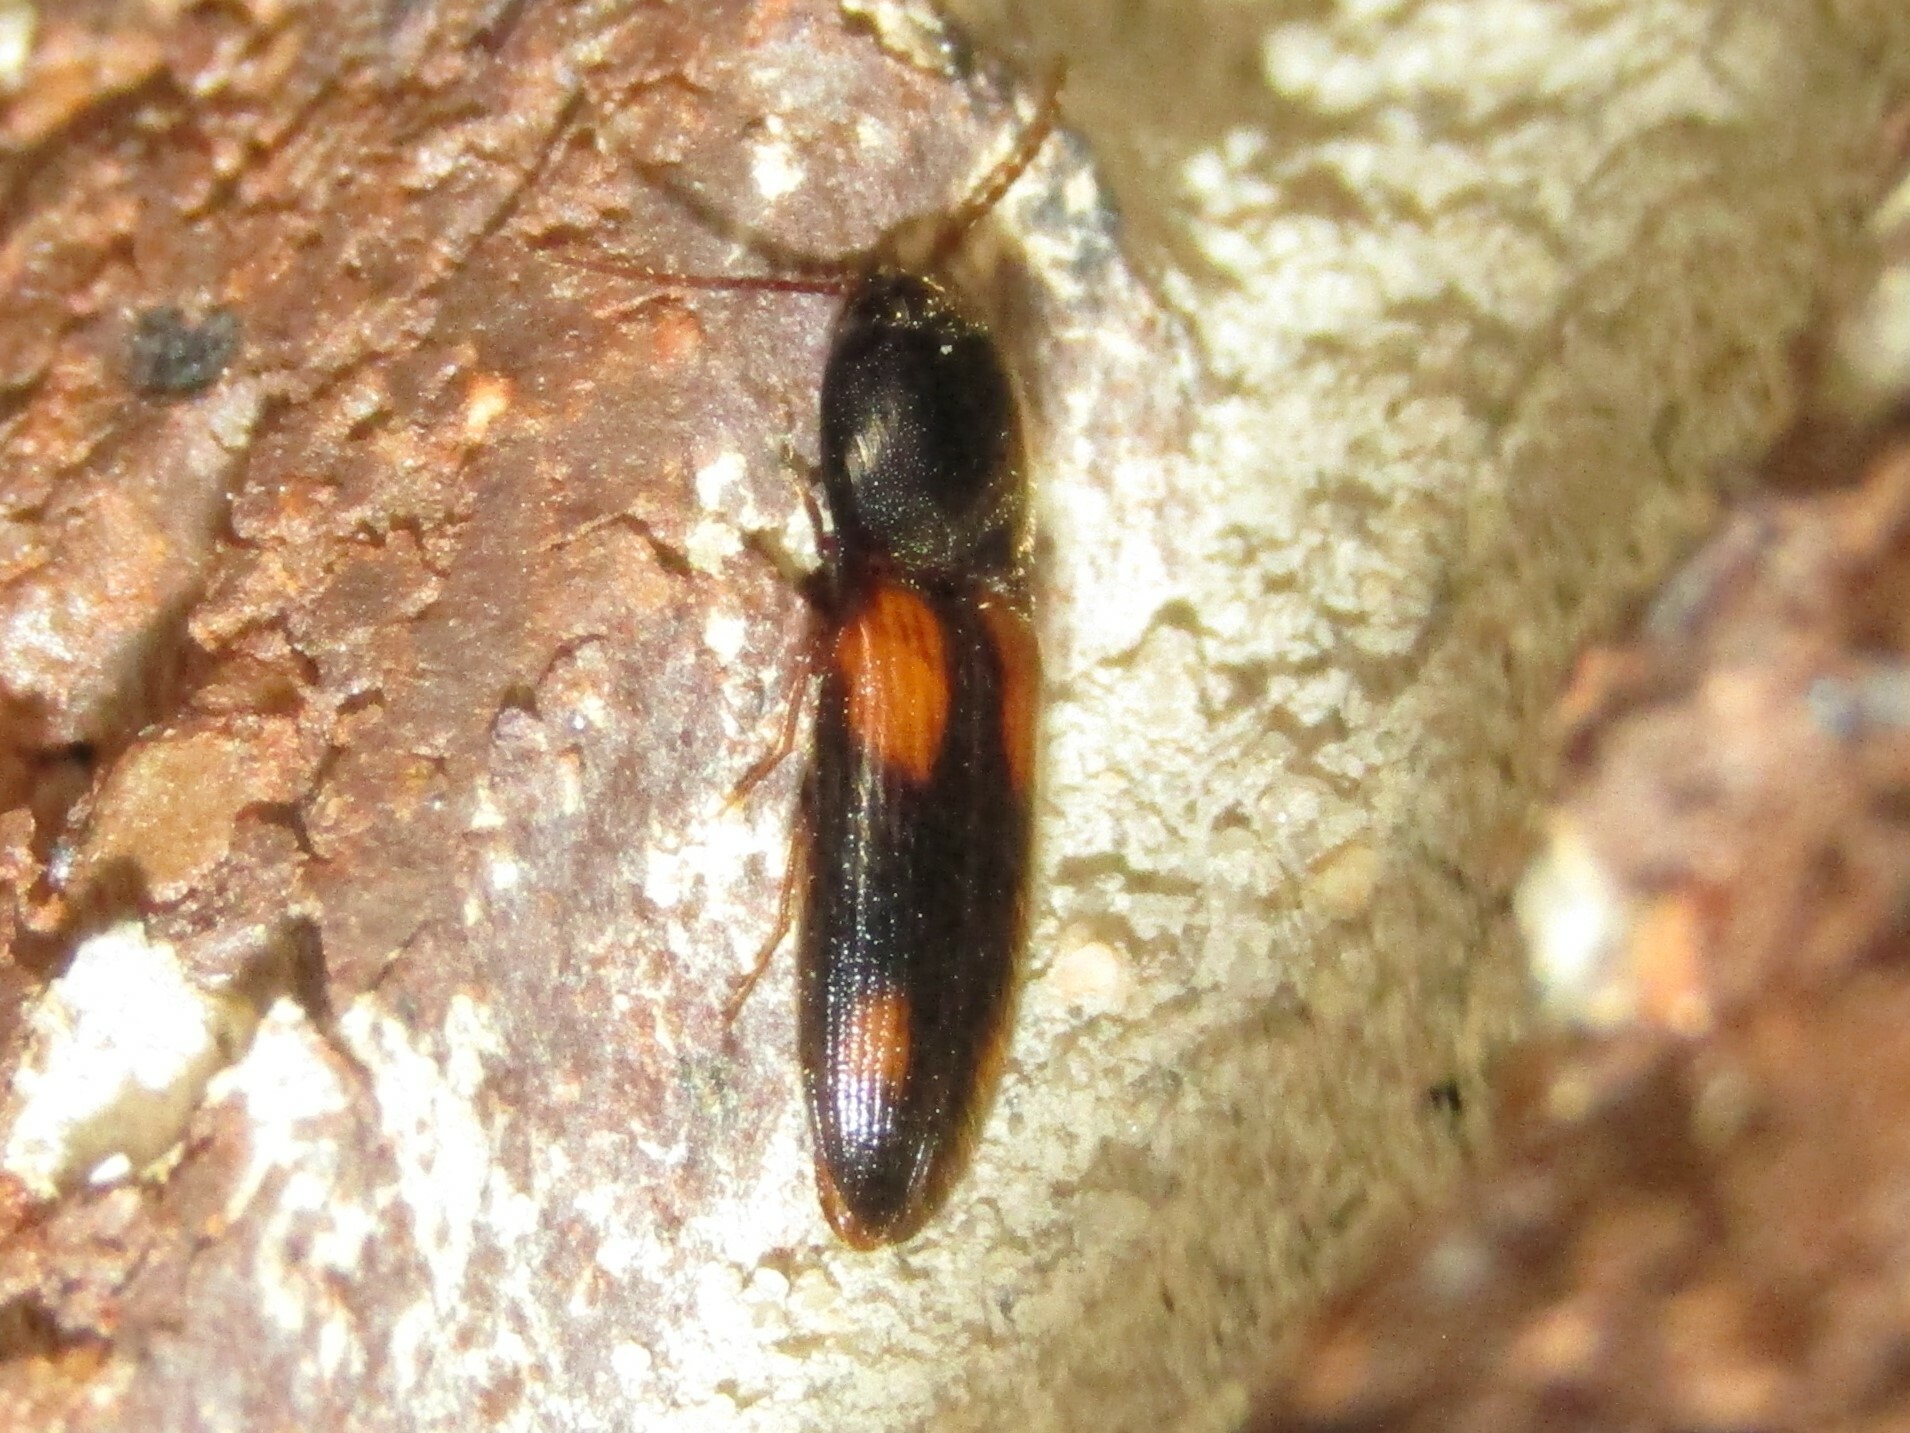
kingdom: Animalia
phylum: Arthropoda
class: Insecta
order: Coleoptera
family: Elateridae
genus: Anchastus
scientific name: Anchastus binus
